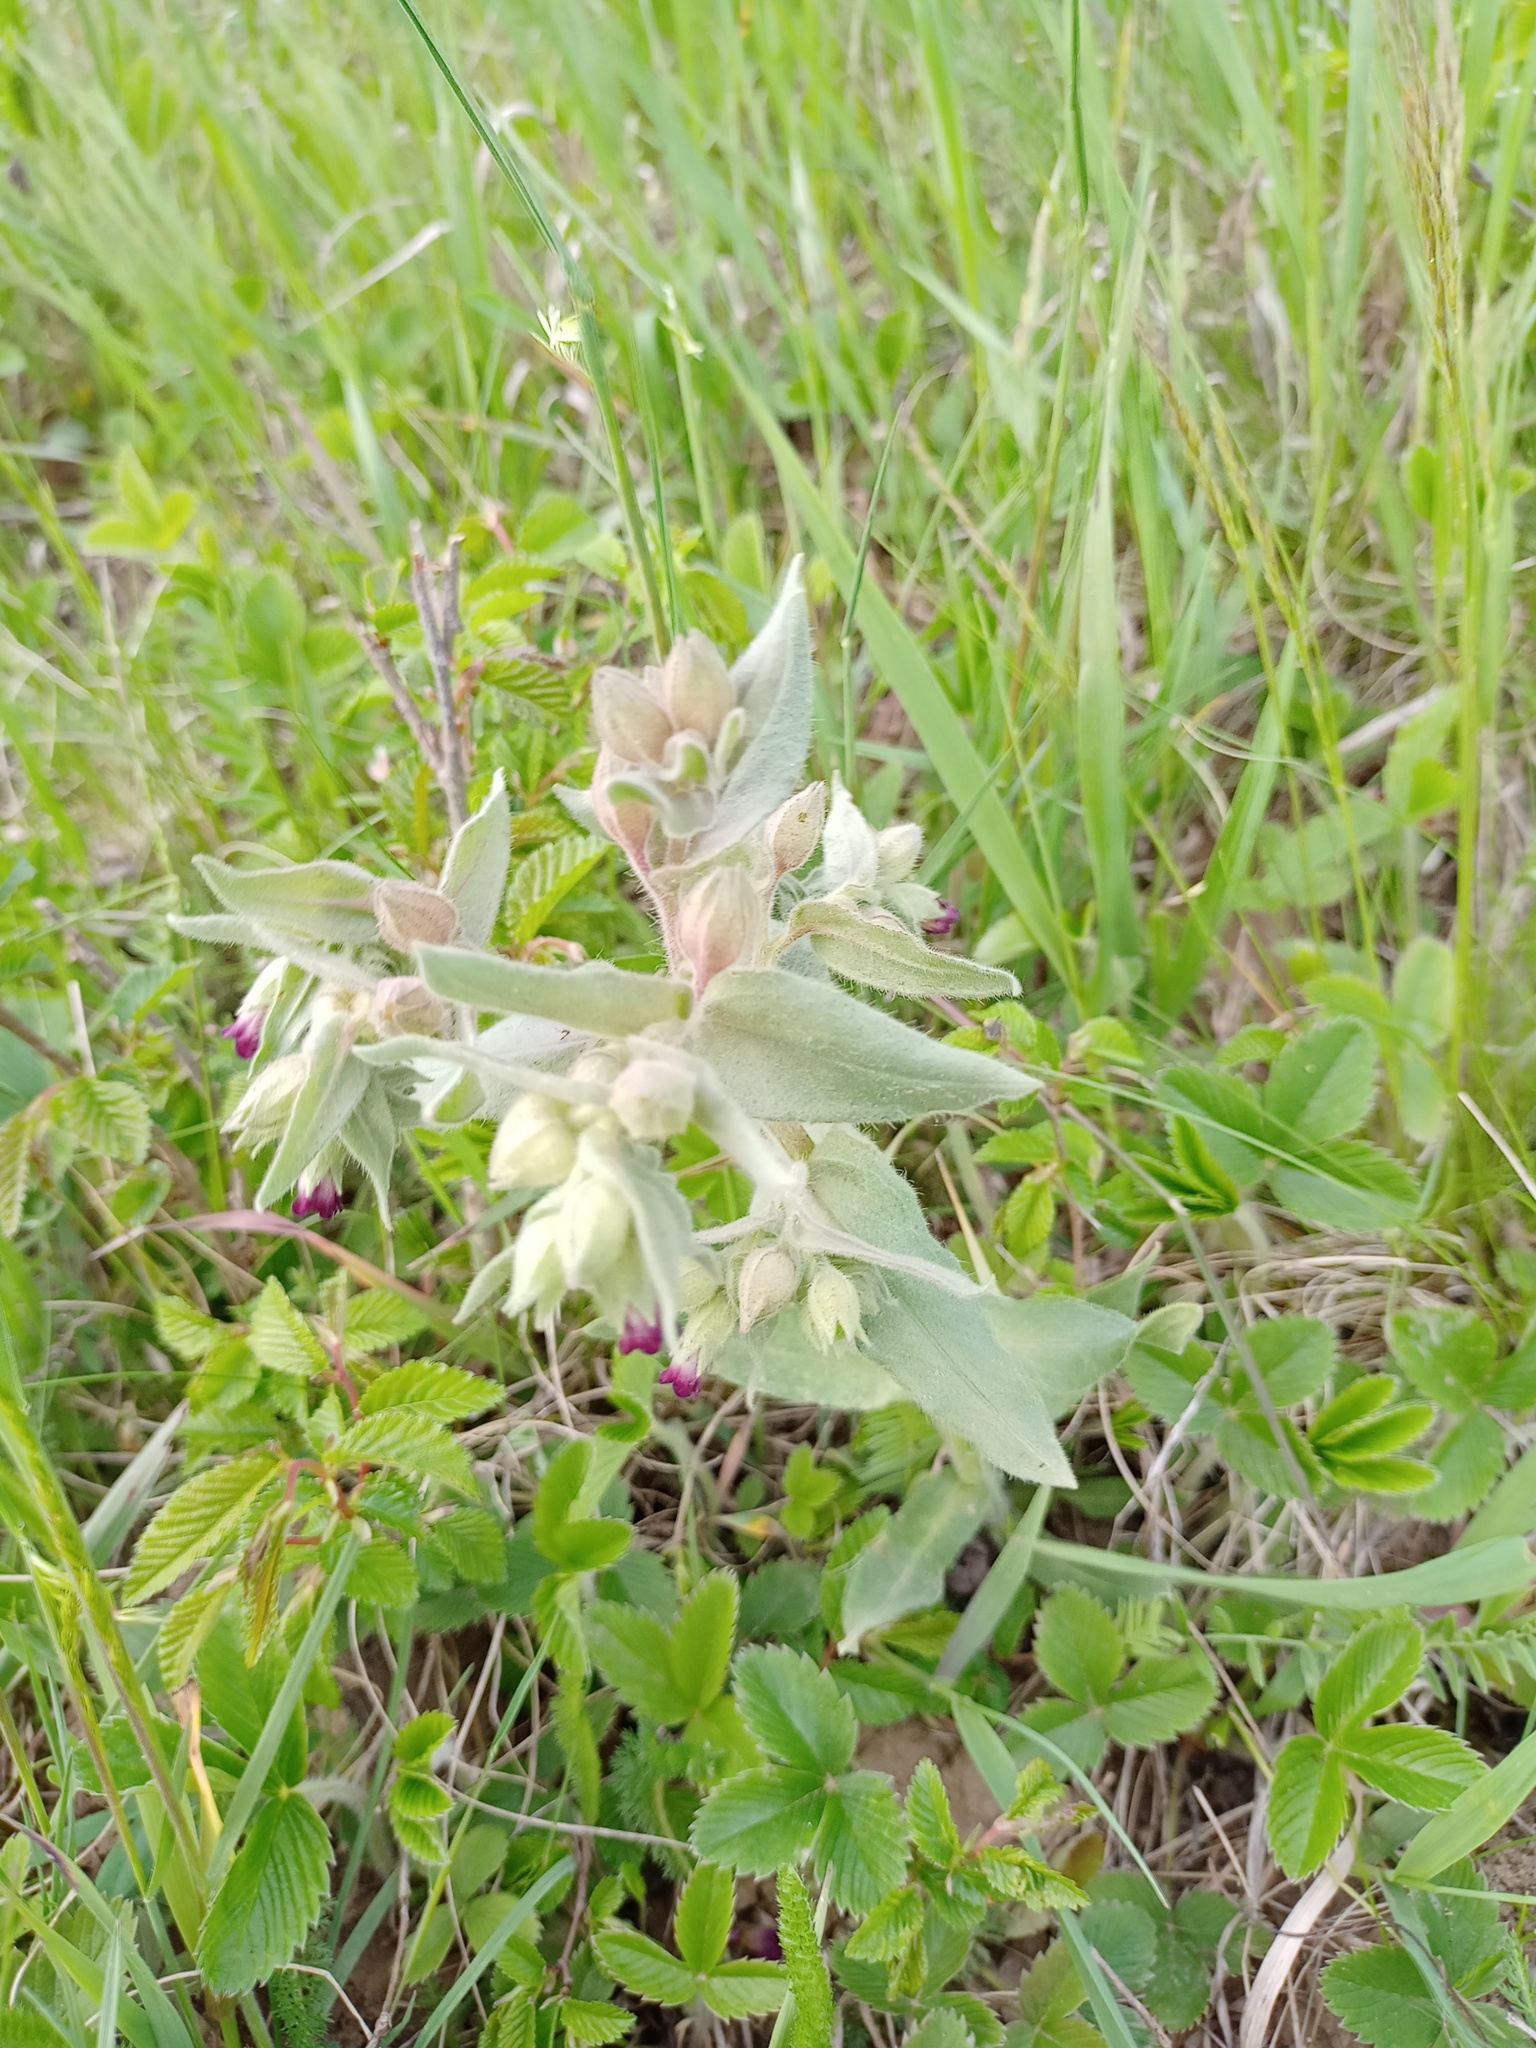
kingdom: Plantae
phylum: Tracheophyta
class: Magnoliopsida
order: Boraginales
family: Boraginaceae
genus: Nonea
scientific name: Nonea pulla
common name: Brown nonea
